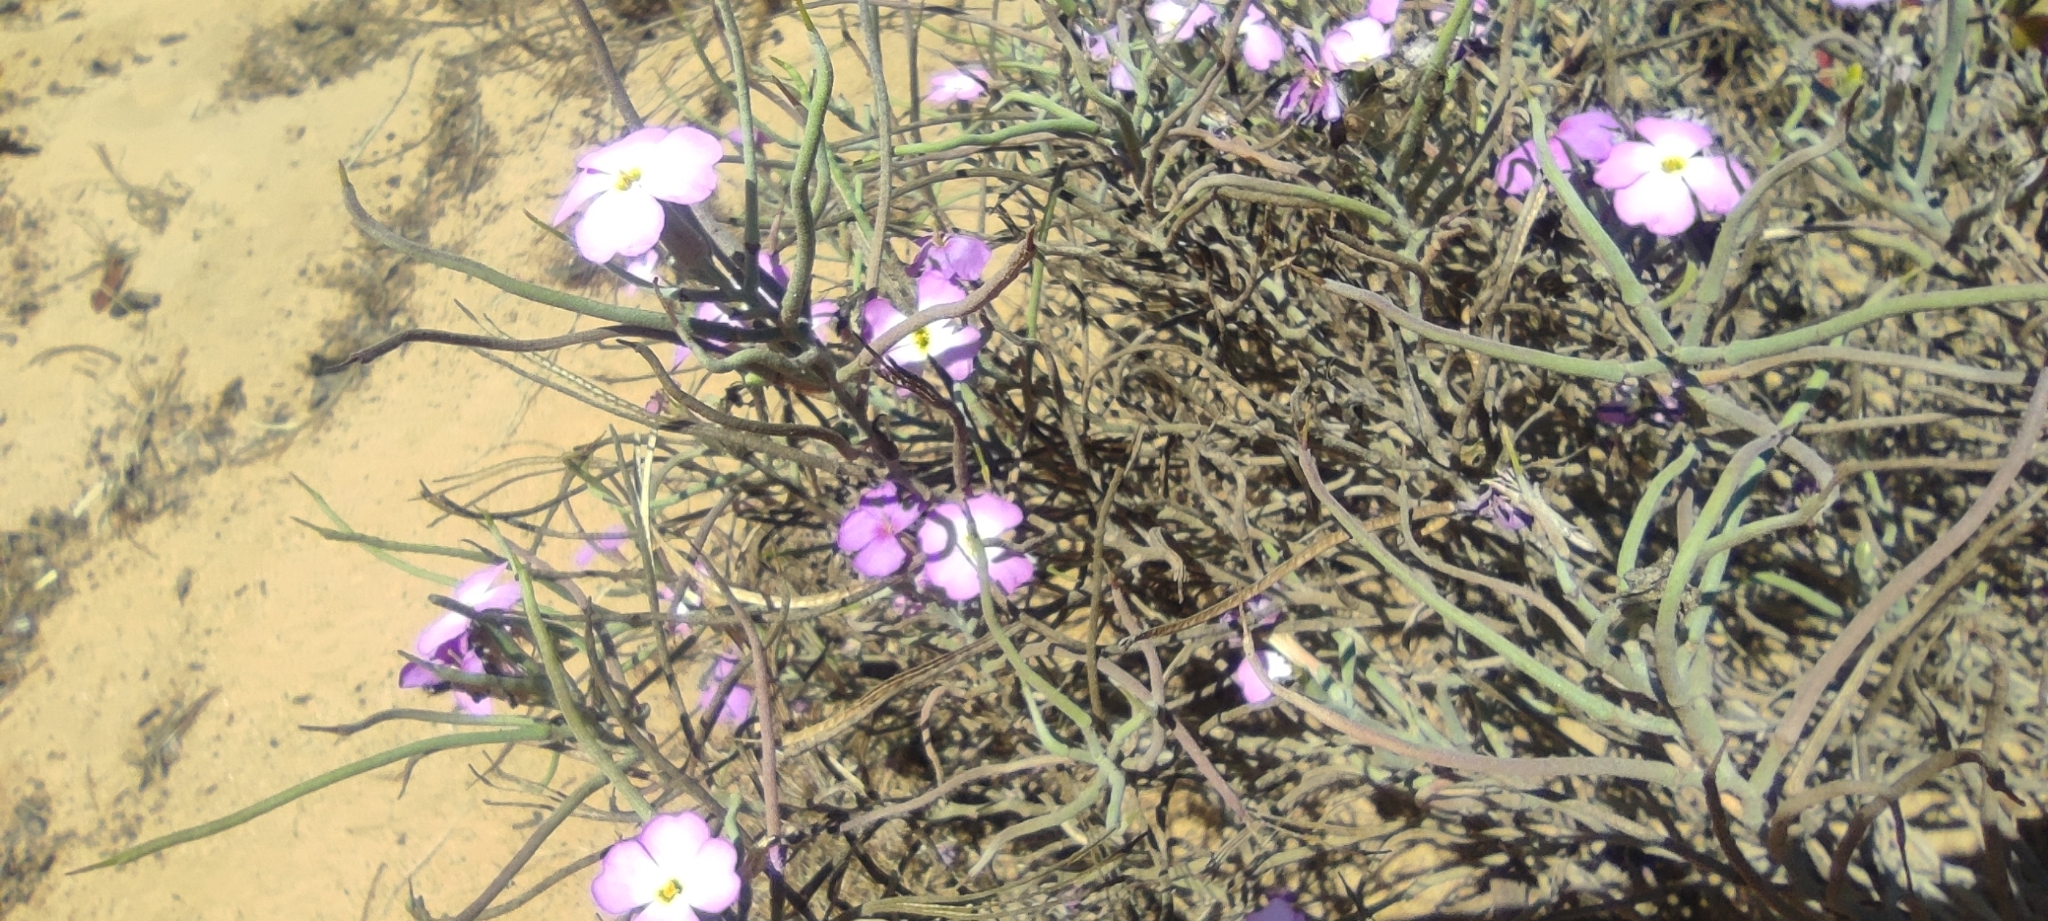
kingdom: Plantae
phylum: Tracheophyta
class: Magnoliopsida
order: Brassicales
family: Brassicaceae
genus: Marcuskochia
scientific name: Marcuskochia littorea
